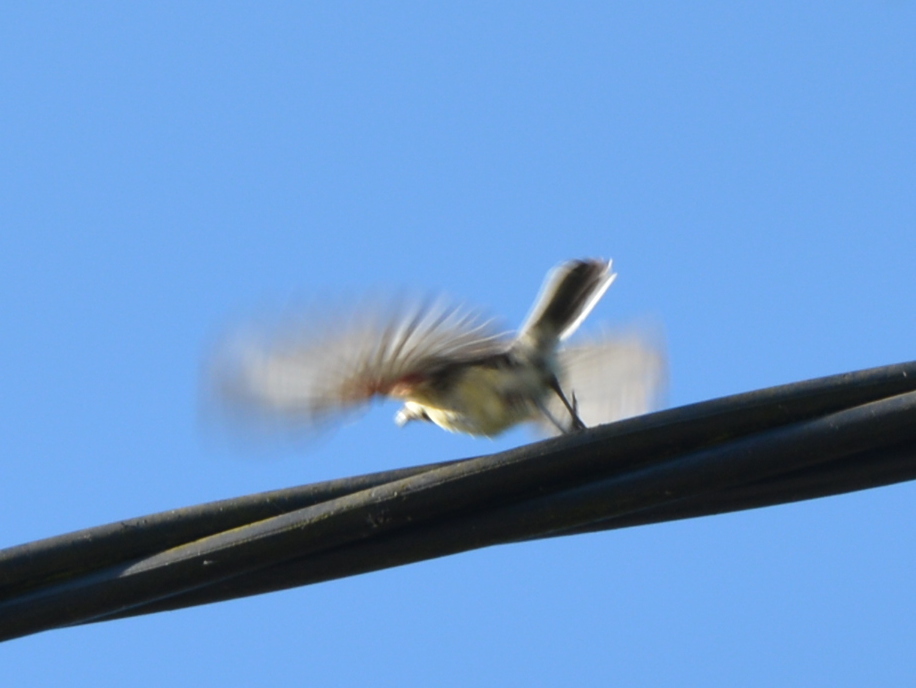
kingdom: Animalia
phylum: Chordata
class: Aves
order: Passeriformes
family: Paridae
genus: Parus
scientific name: Parus major
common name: Great tit
